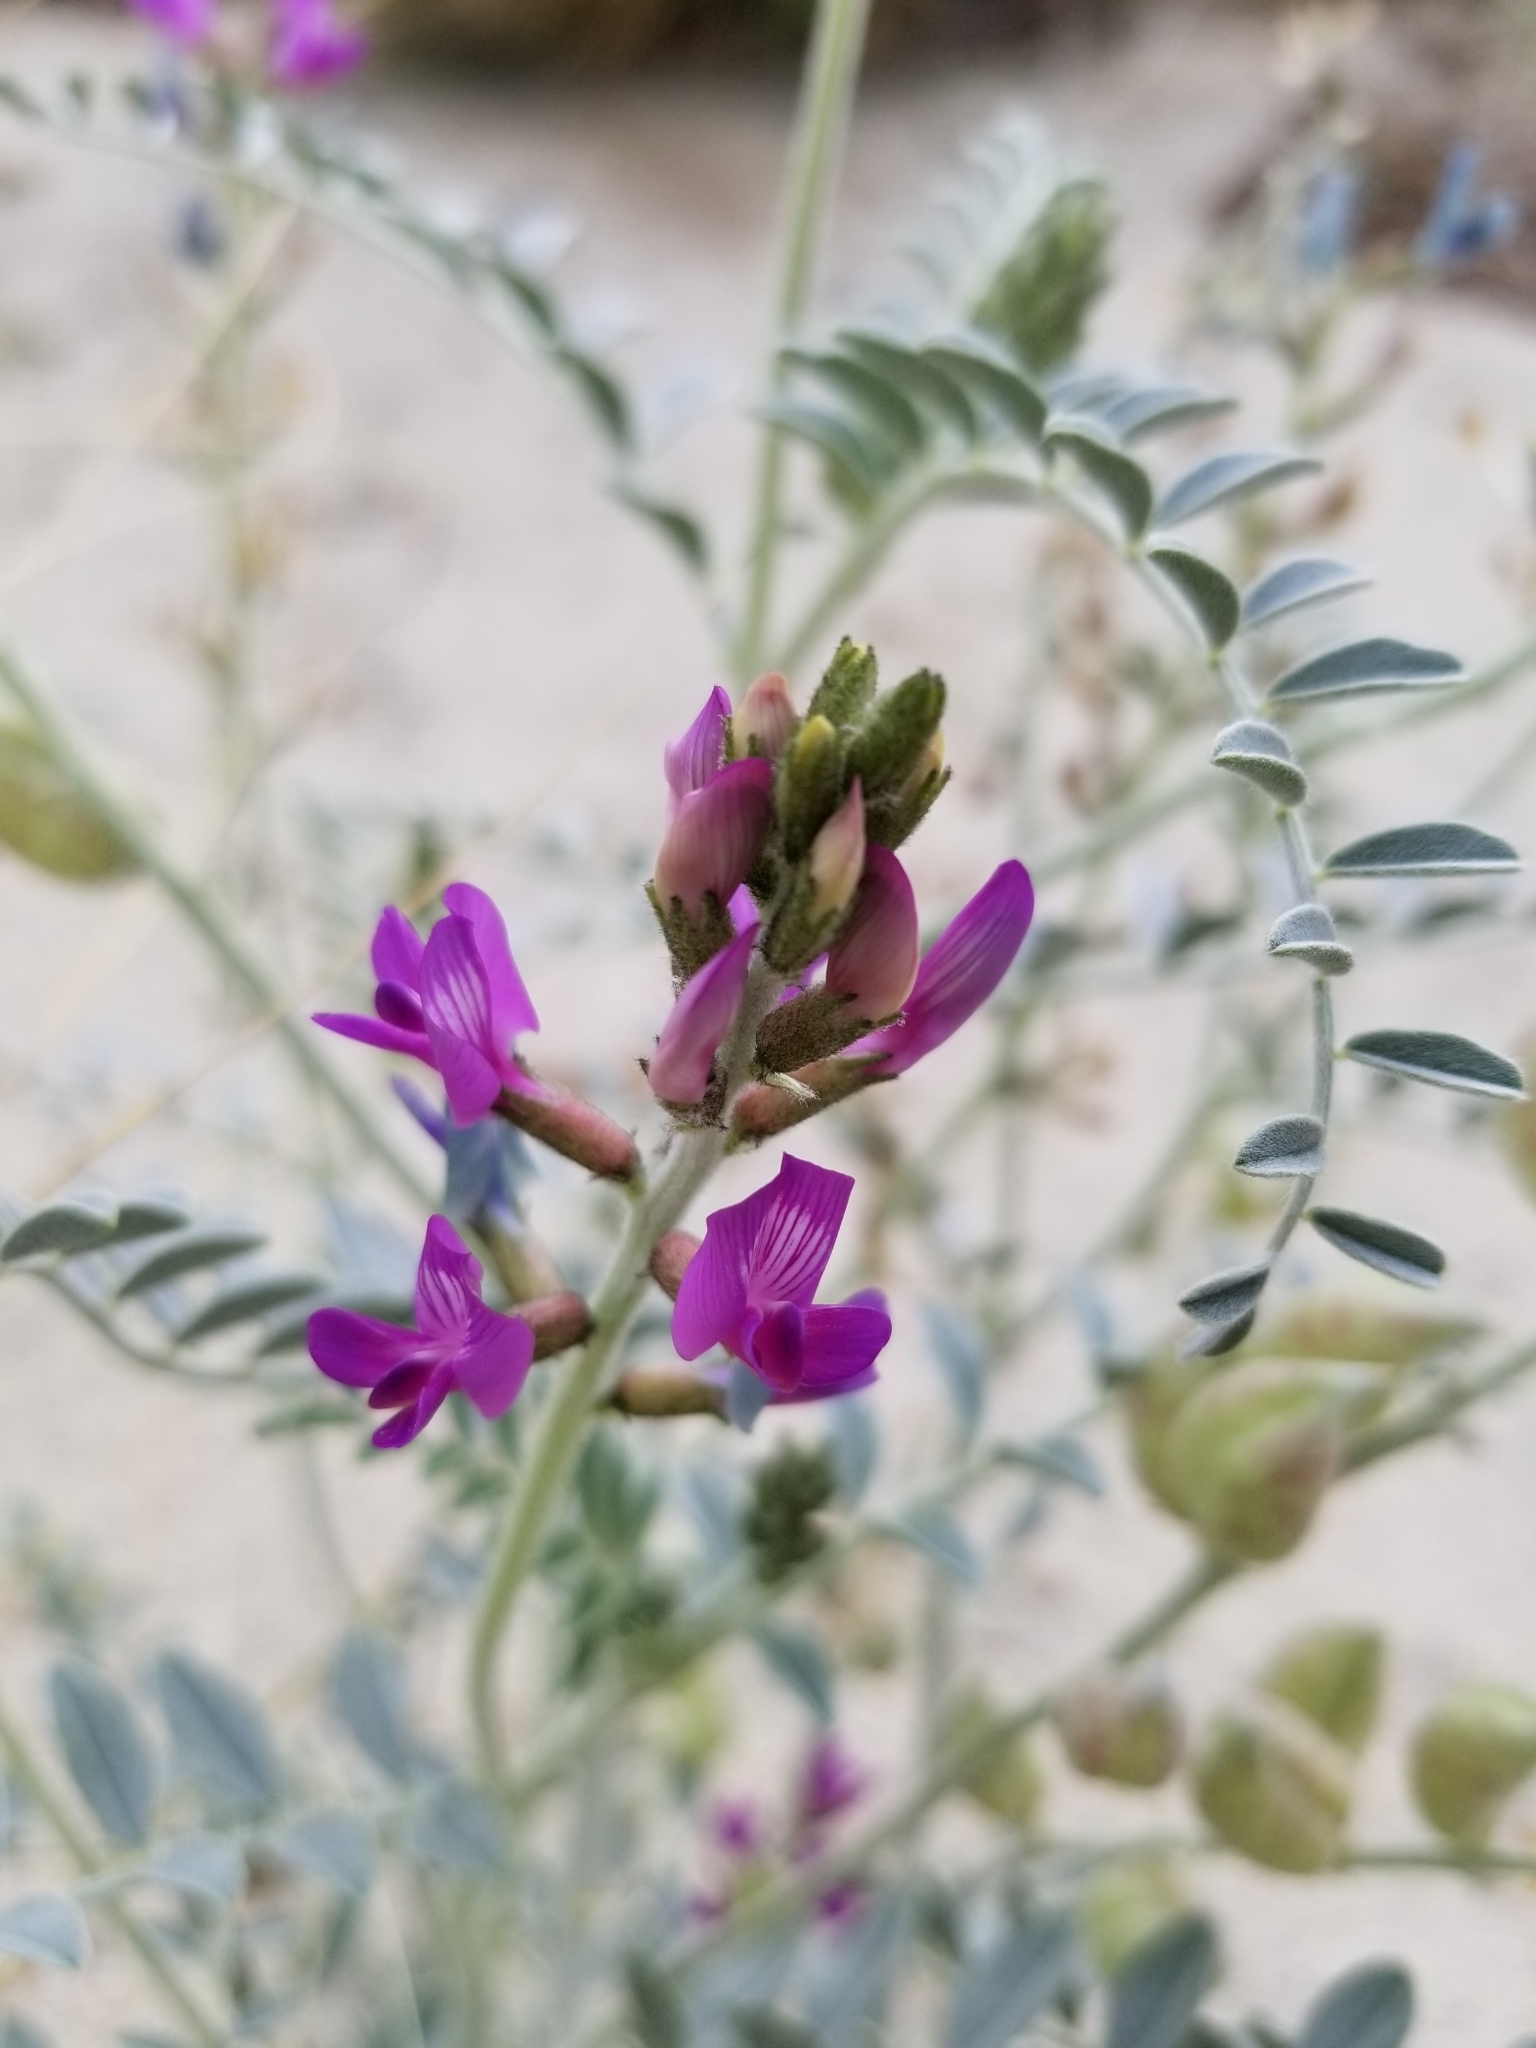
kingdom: Plantae
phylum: Tracheophyta
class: Magnoliopsida
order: Fabales
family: Fabaceae
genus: Astragalus
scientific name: Astragalus lentiginosus
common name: Freckled milkvetch
